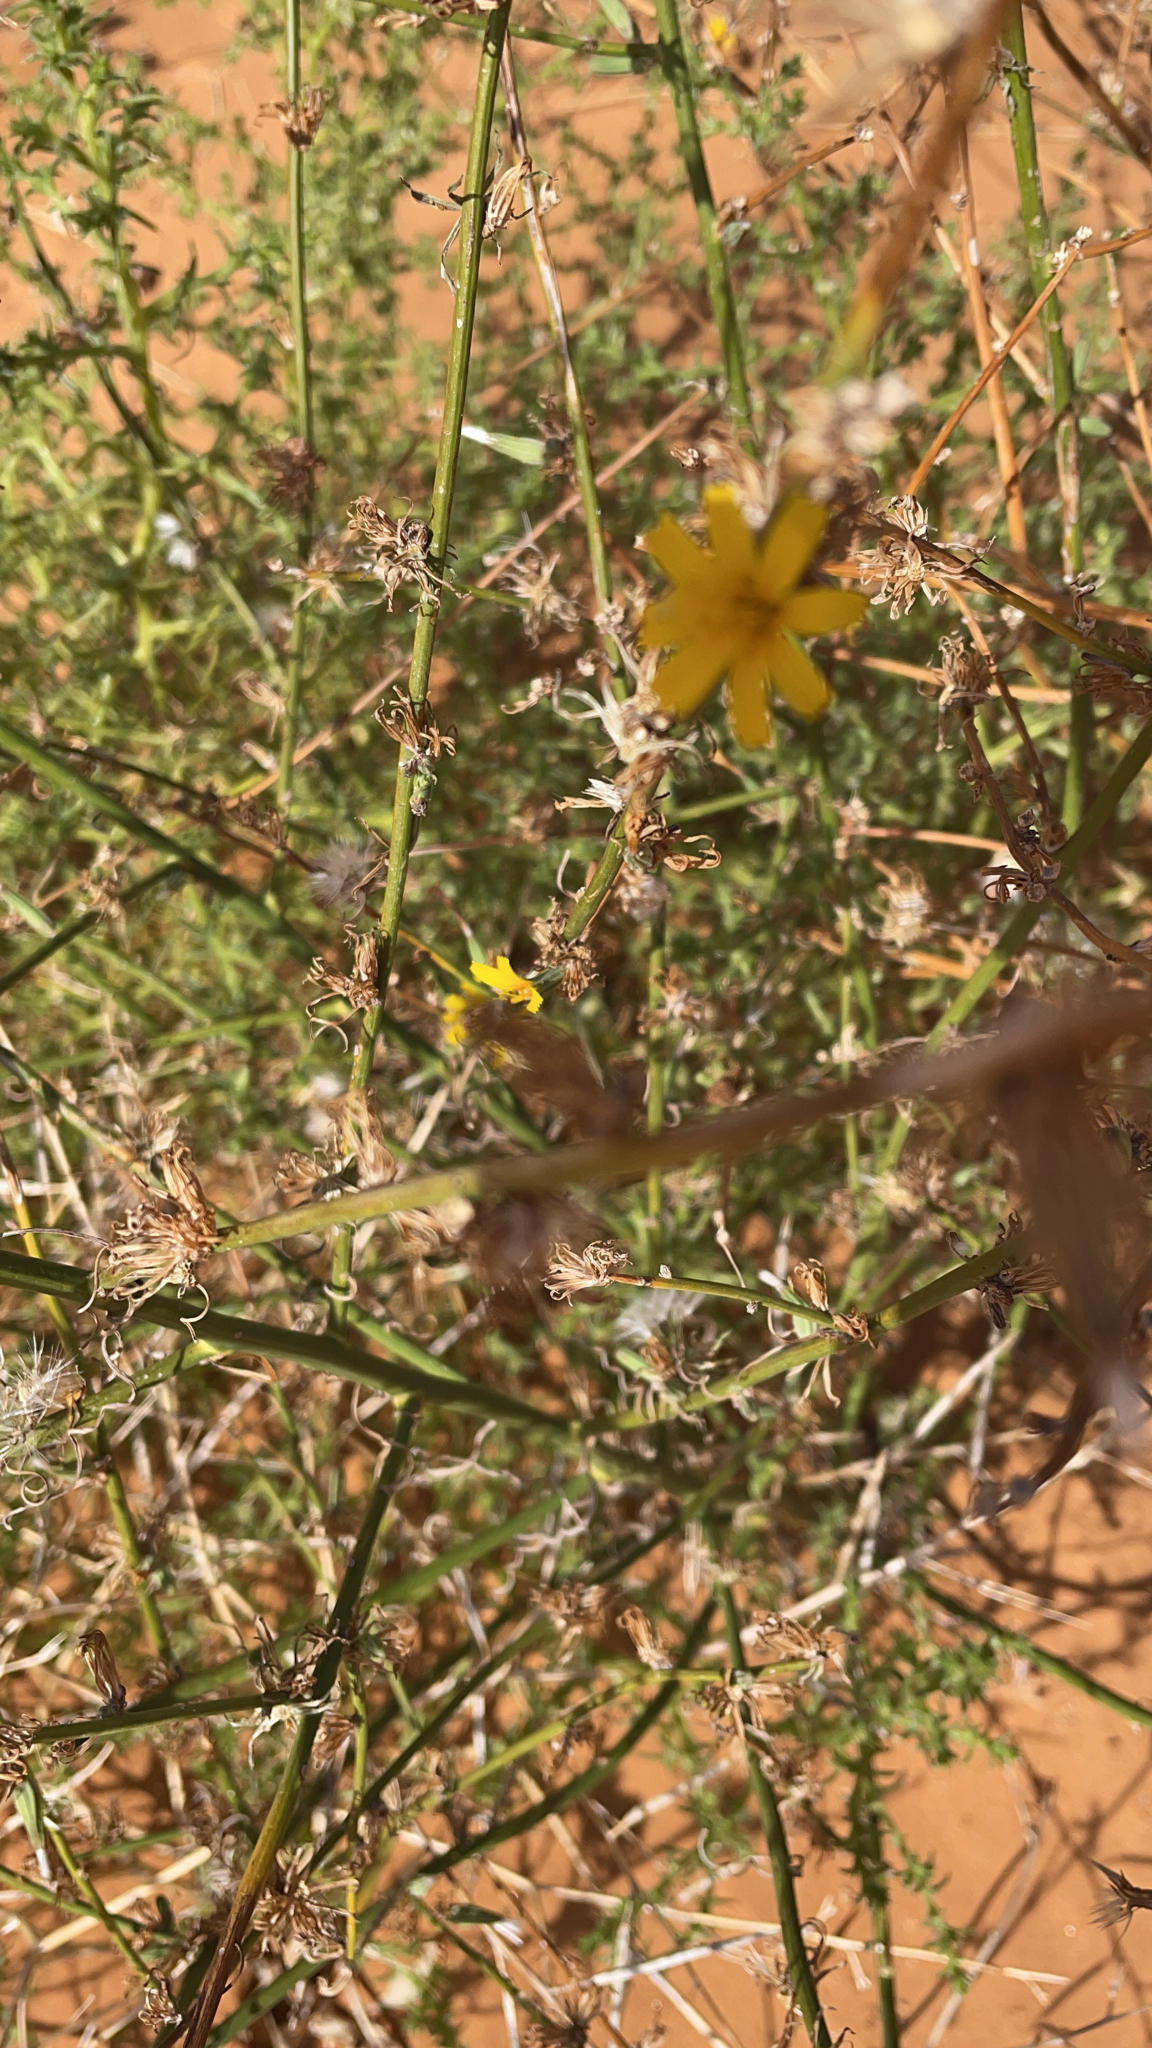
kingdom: Plantae
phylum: Tracheophyta
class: Magnoliopsida
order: Asterales
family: Asteraceae
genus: Chondrilla
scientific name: Chondrilla juncea
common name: Skeleton weed
